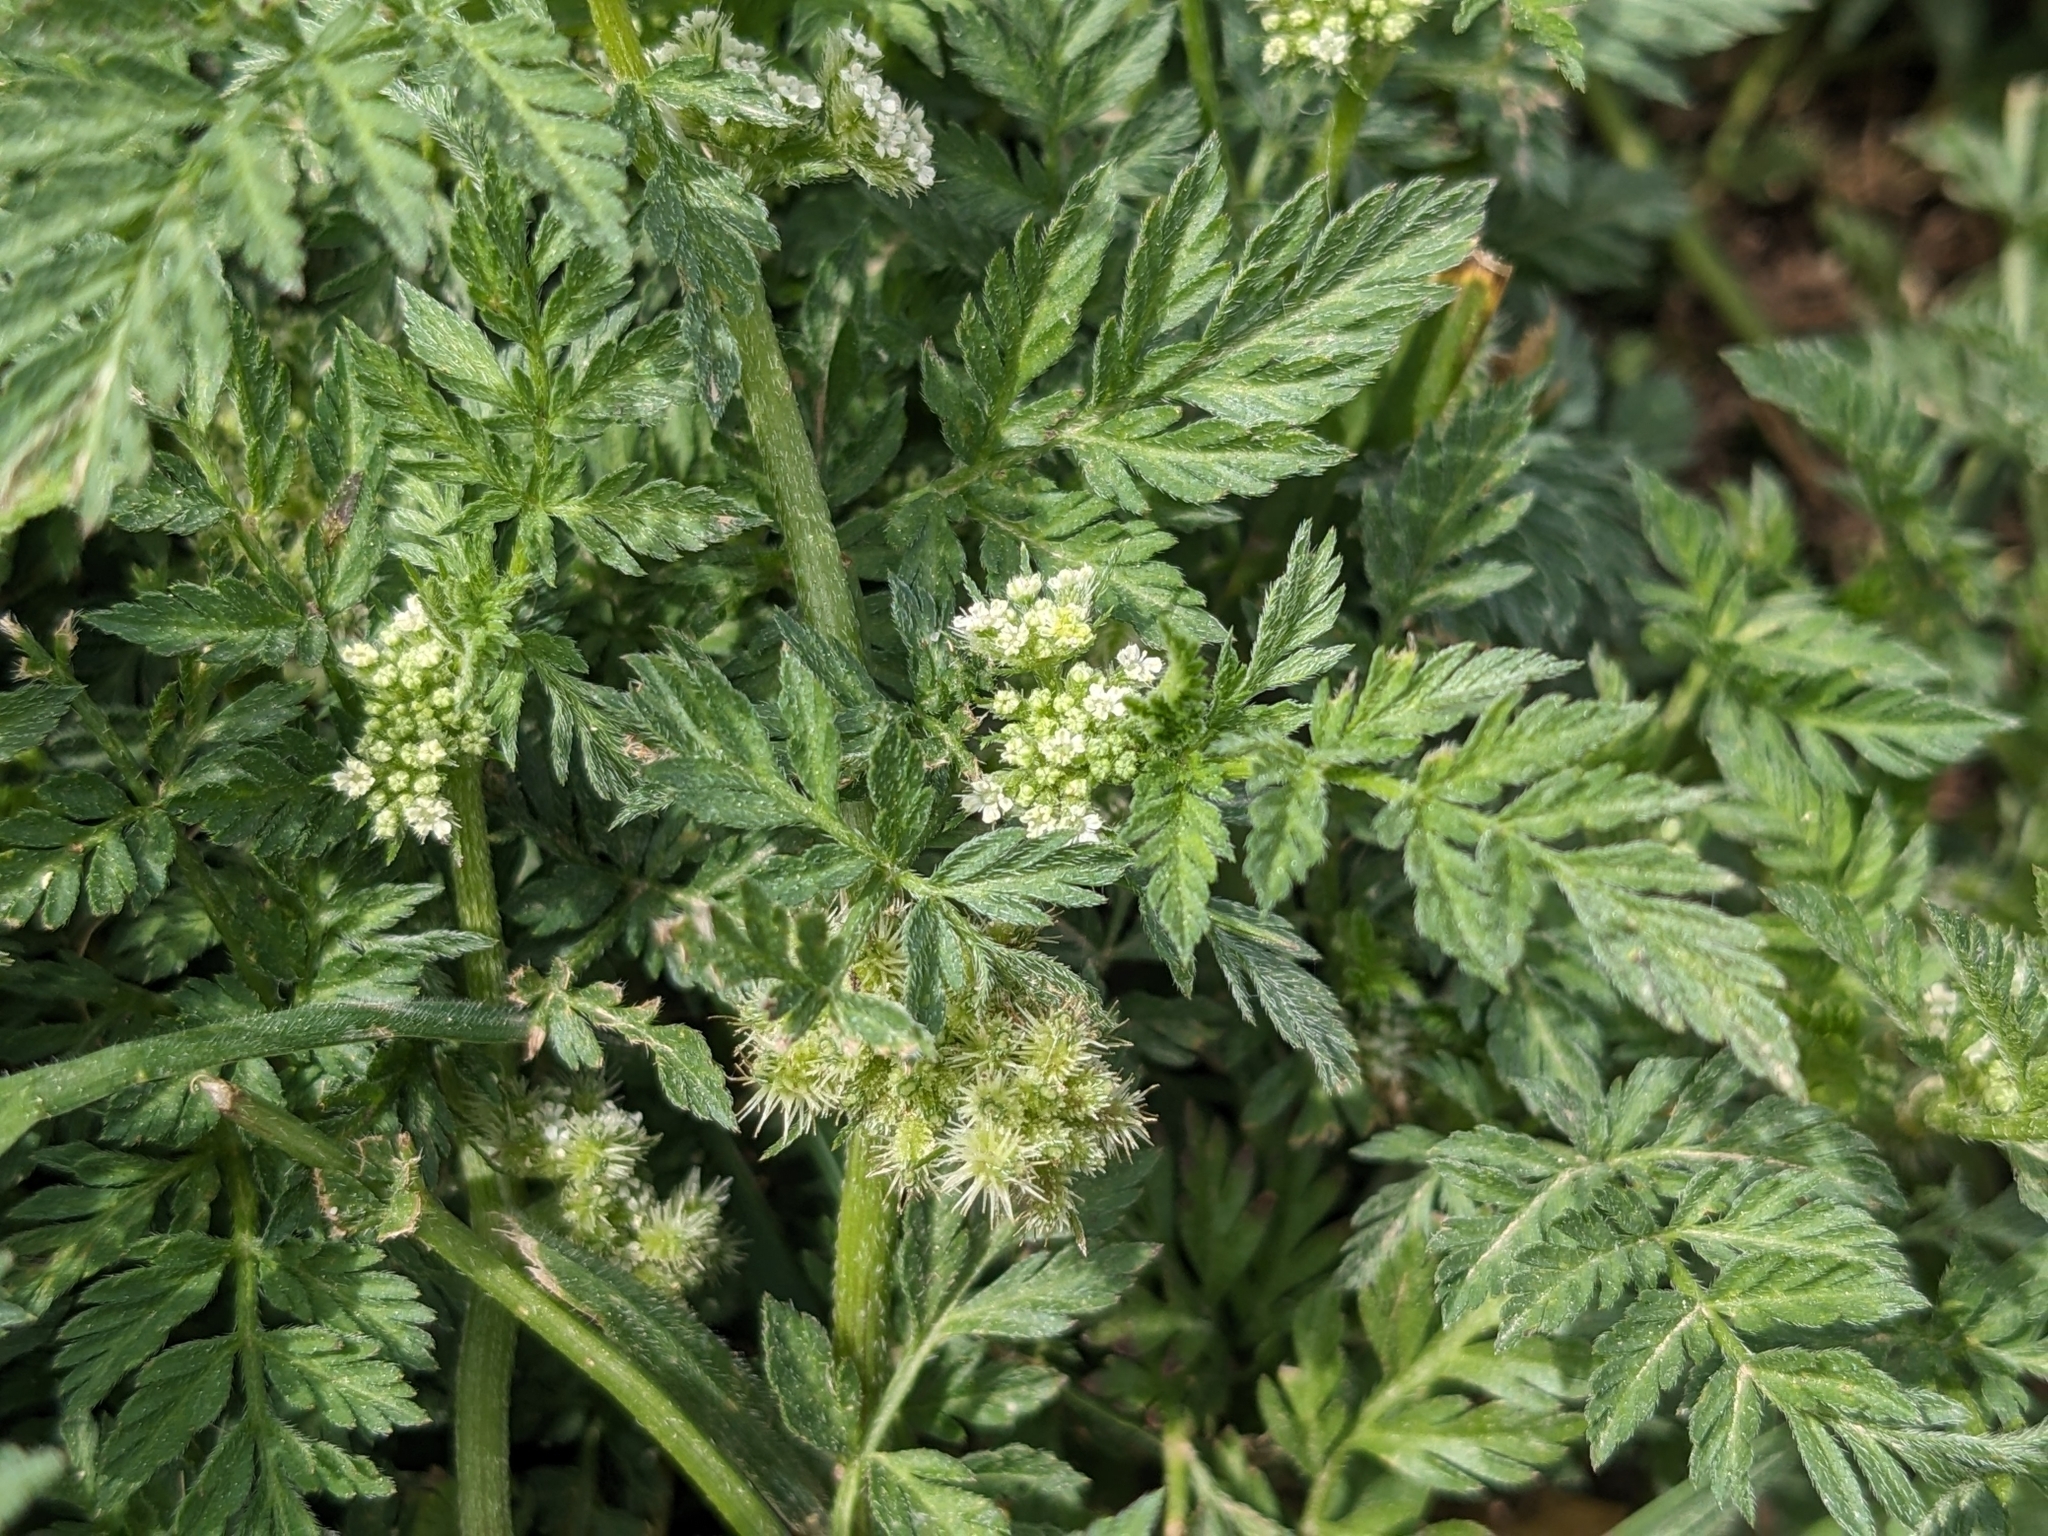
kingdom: Plantae
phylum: Tracheophyta
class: Magnoliopsida
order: Apiales
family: Apiaceae
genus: Torilis
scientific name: Torilis nodosa
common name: Knotted hedge-parsley
